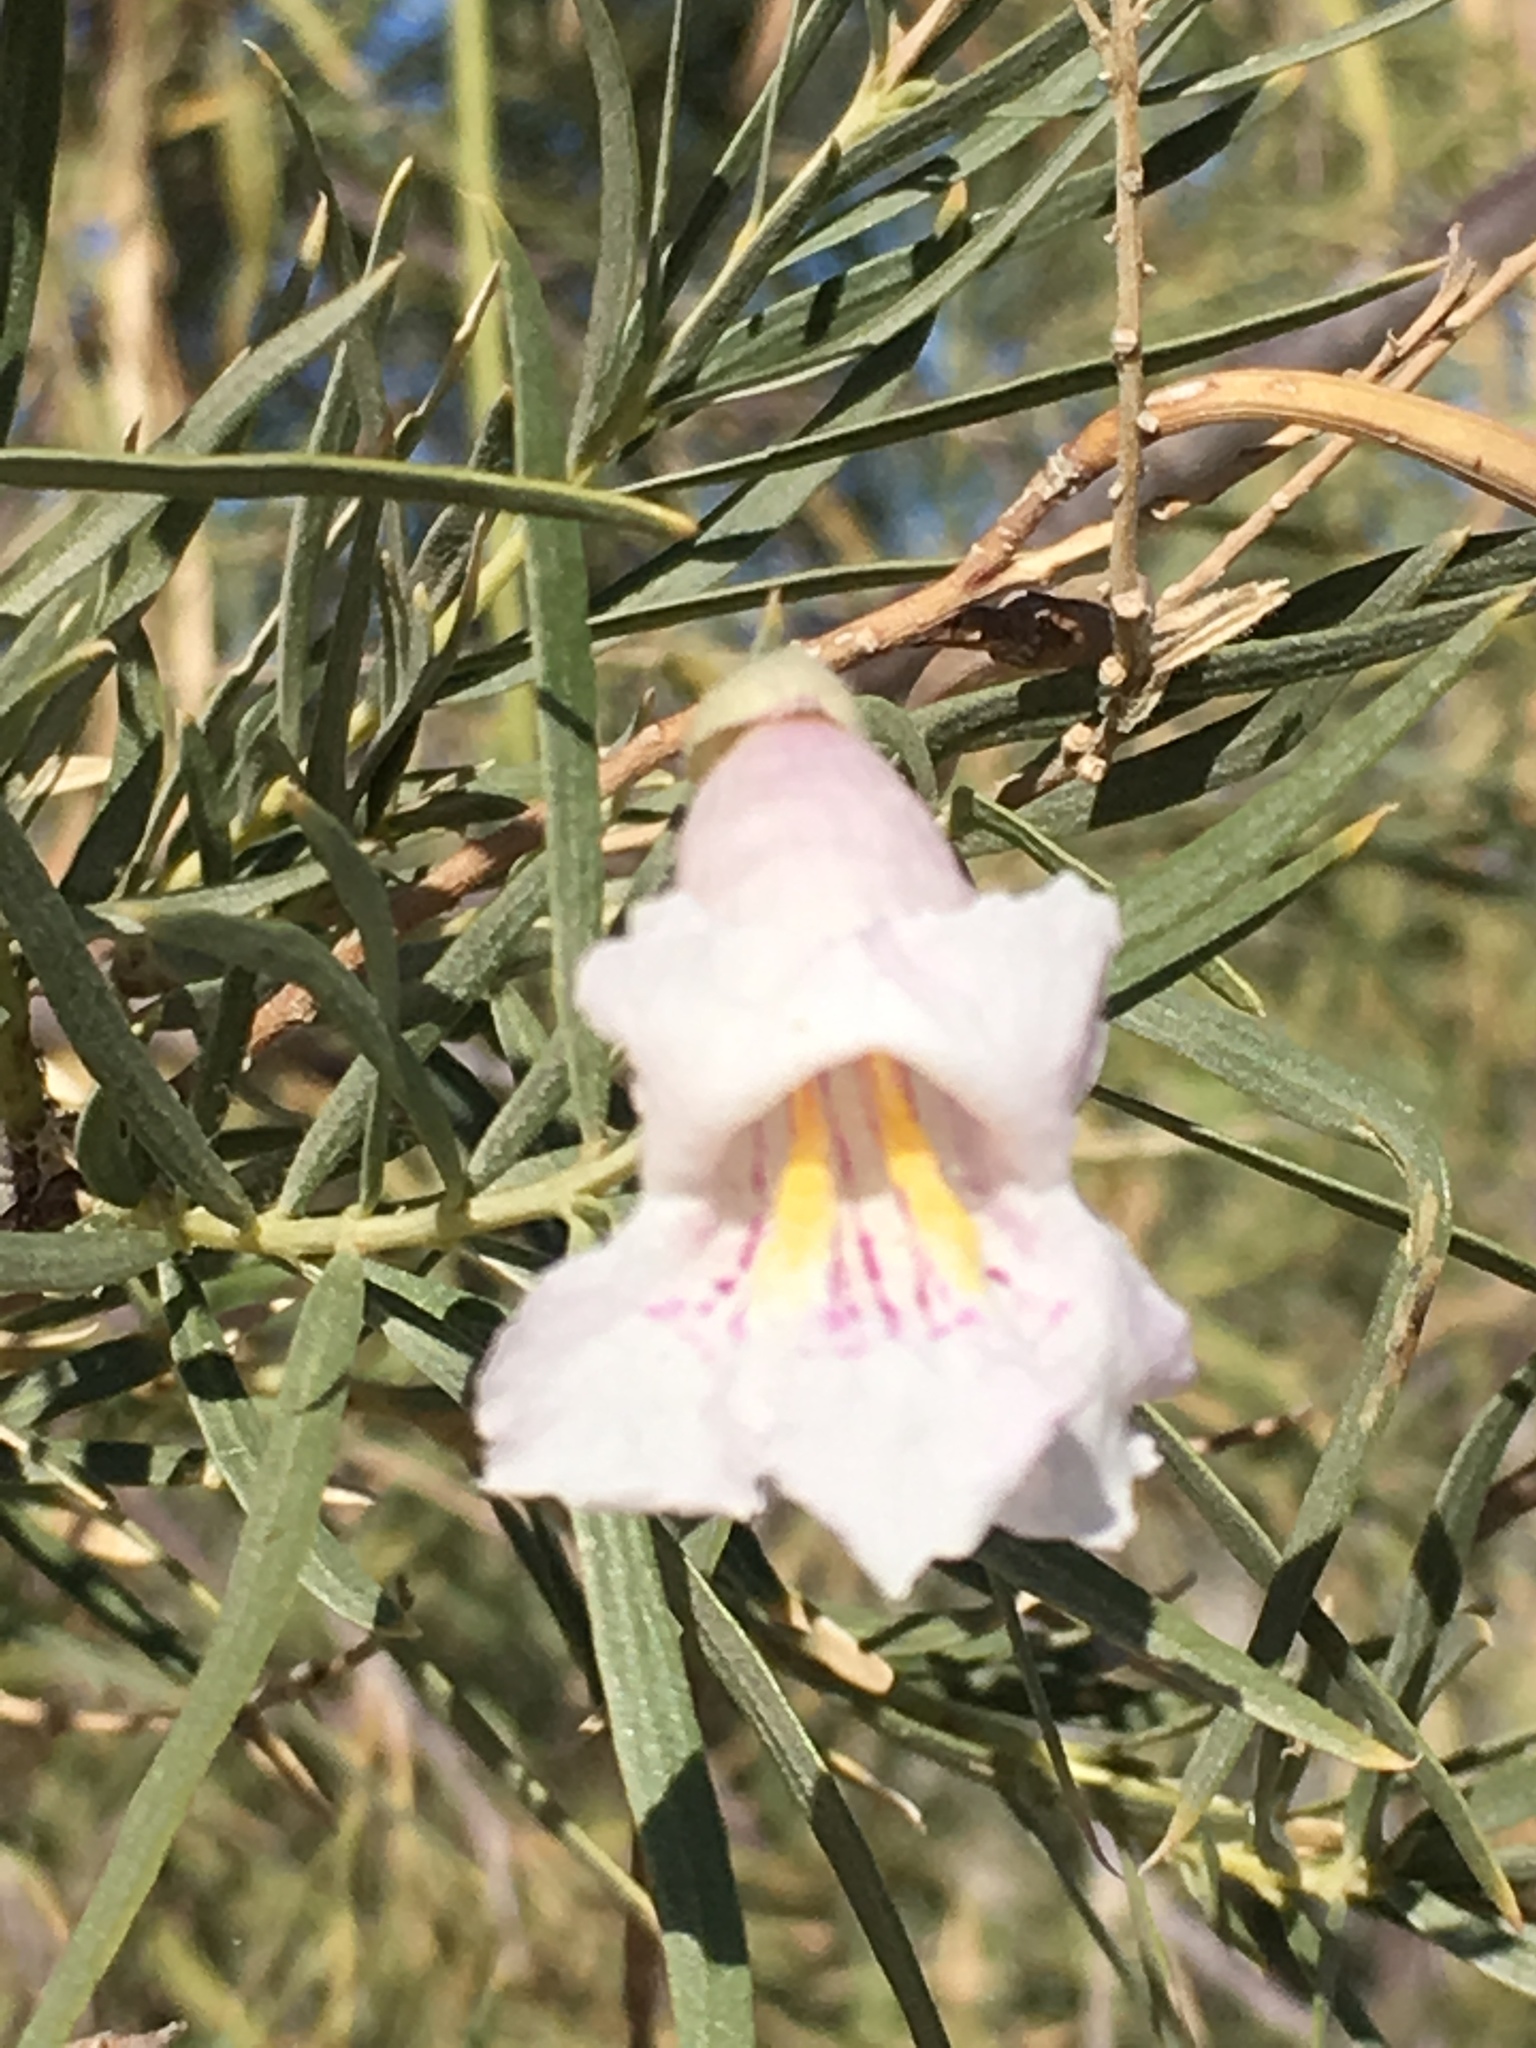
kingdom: Plantae
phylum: Tracheophyta
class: Magnoliopsida
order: Lamiales
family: Bignoniaceae
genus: Chilopsis
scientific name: Chilopsis linearis
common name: Desert-willow
